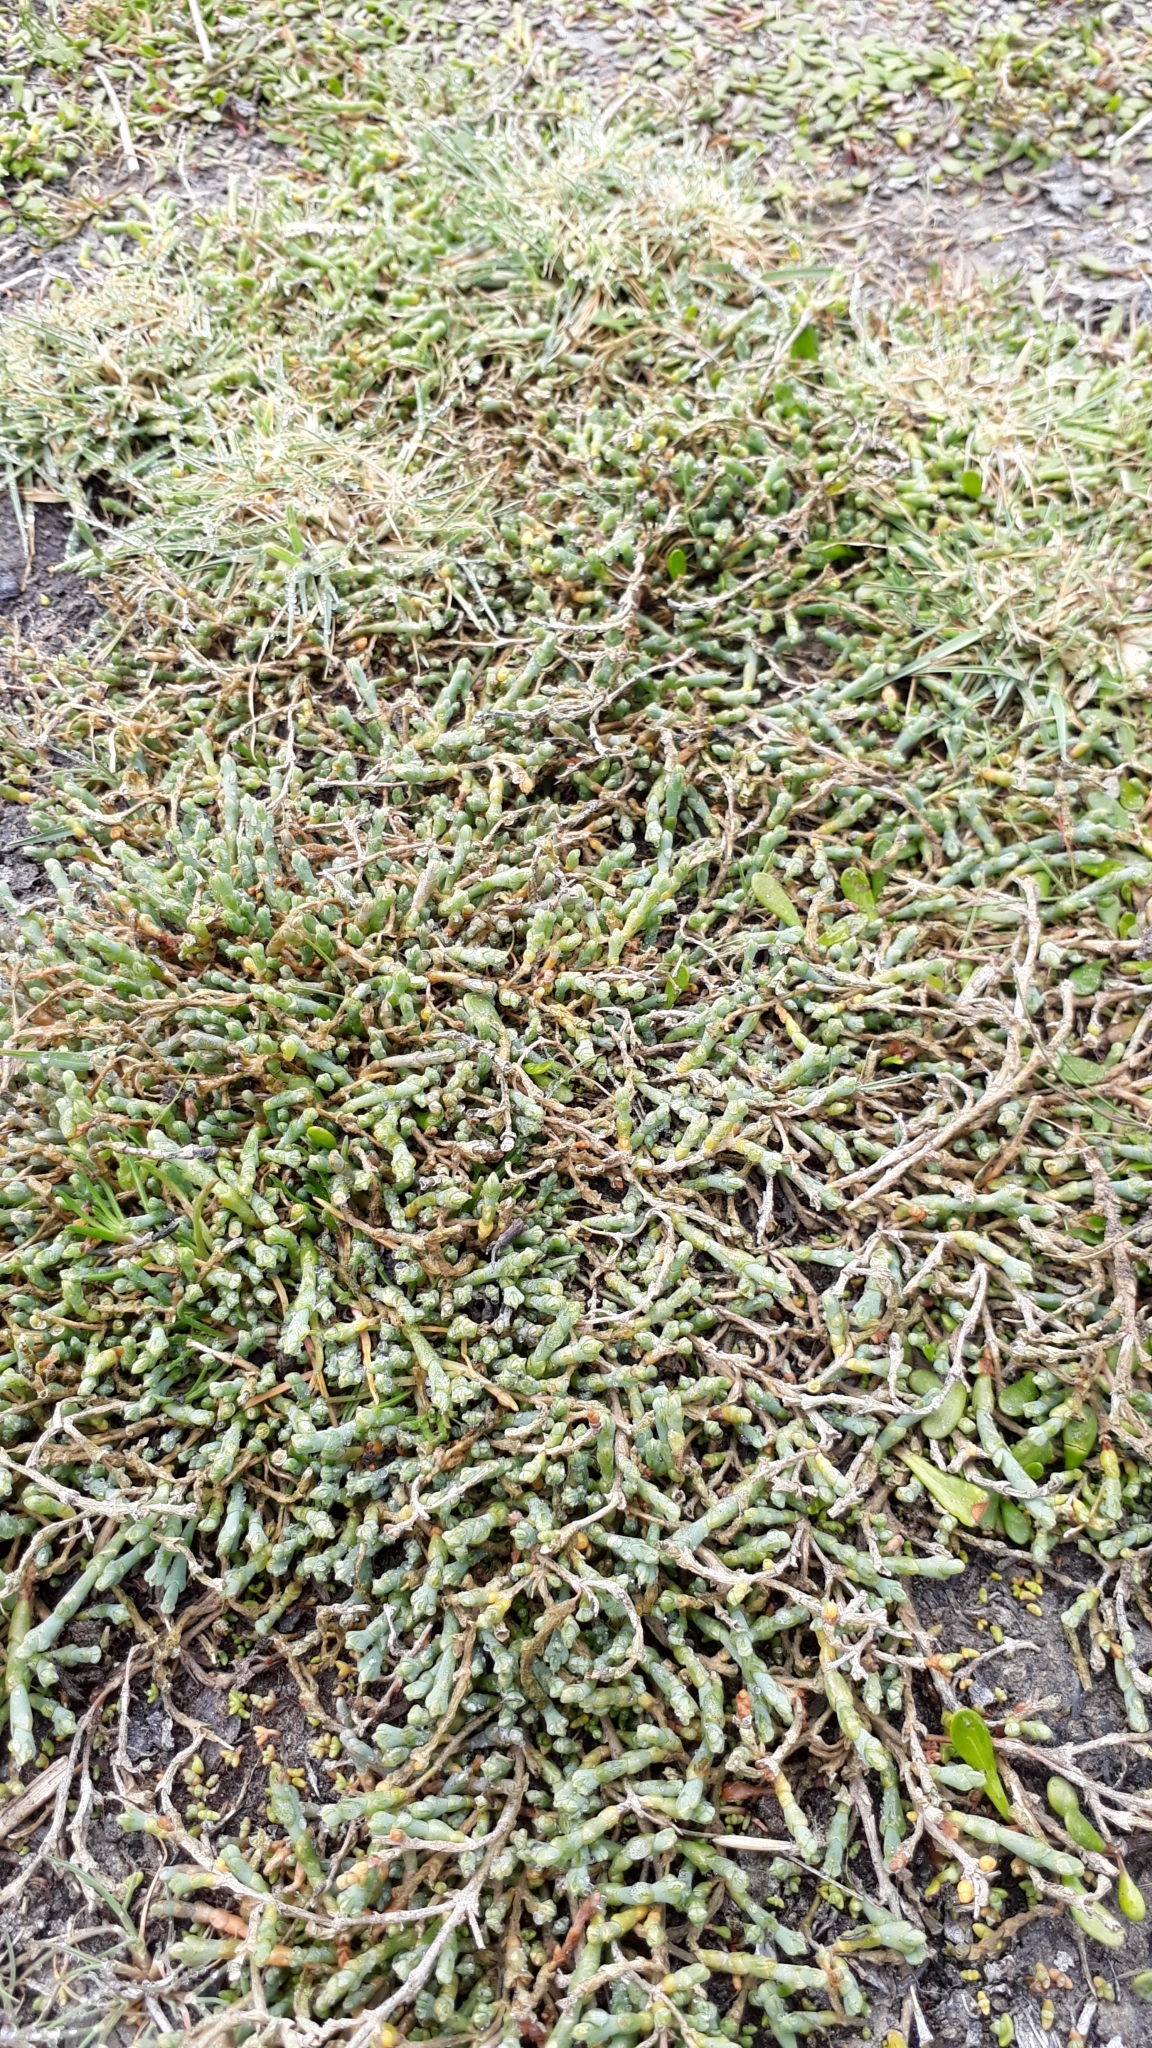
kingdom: Plantae
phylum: Tracheophyta
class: Magnoliopsida
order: Caryophyllales
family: Amaranthaceae
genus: Salicornia
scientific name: Salicornia quinqueflora
